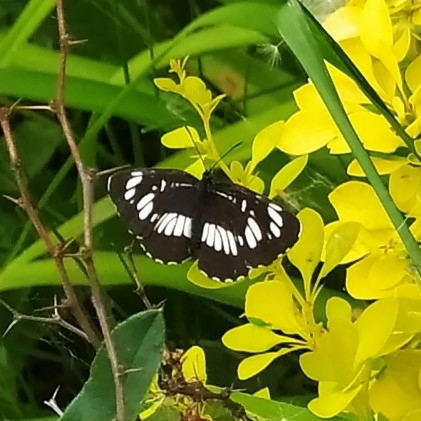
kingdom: Animalia
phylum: Arthropoda
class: Insecta
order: Lepidoptera
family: Nymphalidae
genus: Neptis
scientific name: Neptis rivularis
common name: Hungarian glider
